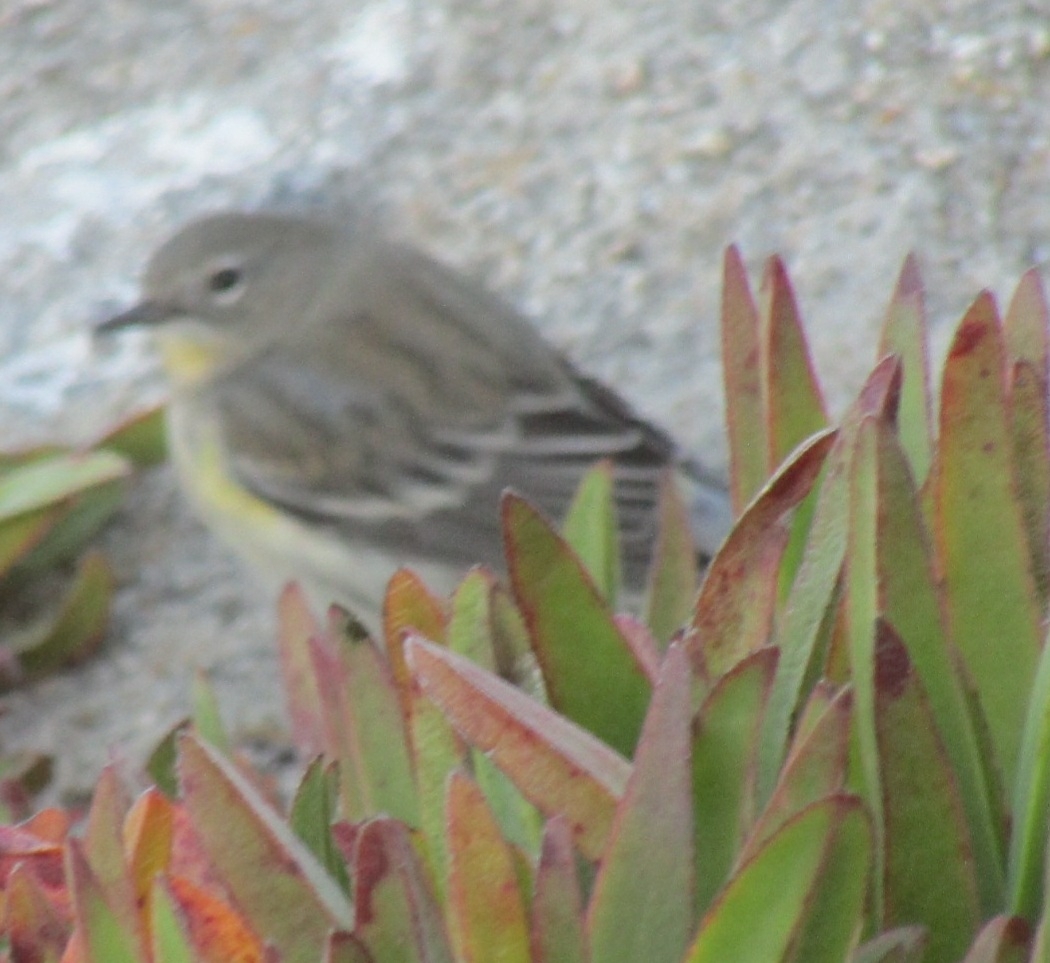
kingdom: Animalia
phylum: Chordata
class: Aves
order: Passeriformes
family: Parulidae
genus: Setophaga
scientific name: Setophaga coronata
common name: Myrtle warbler
